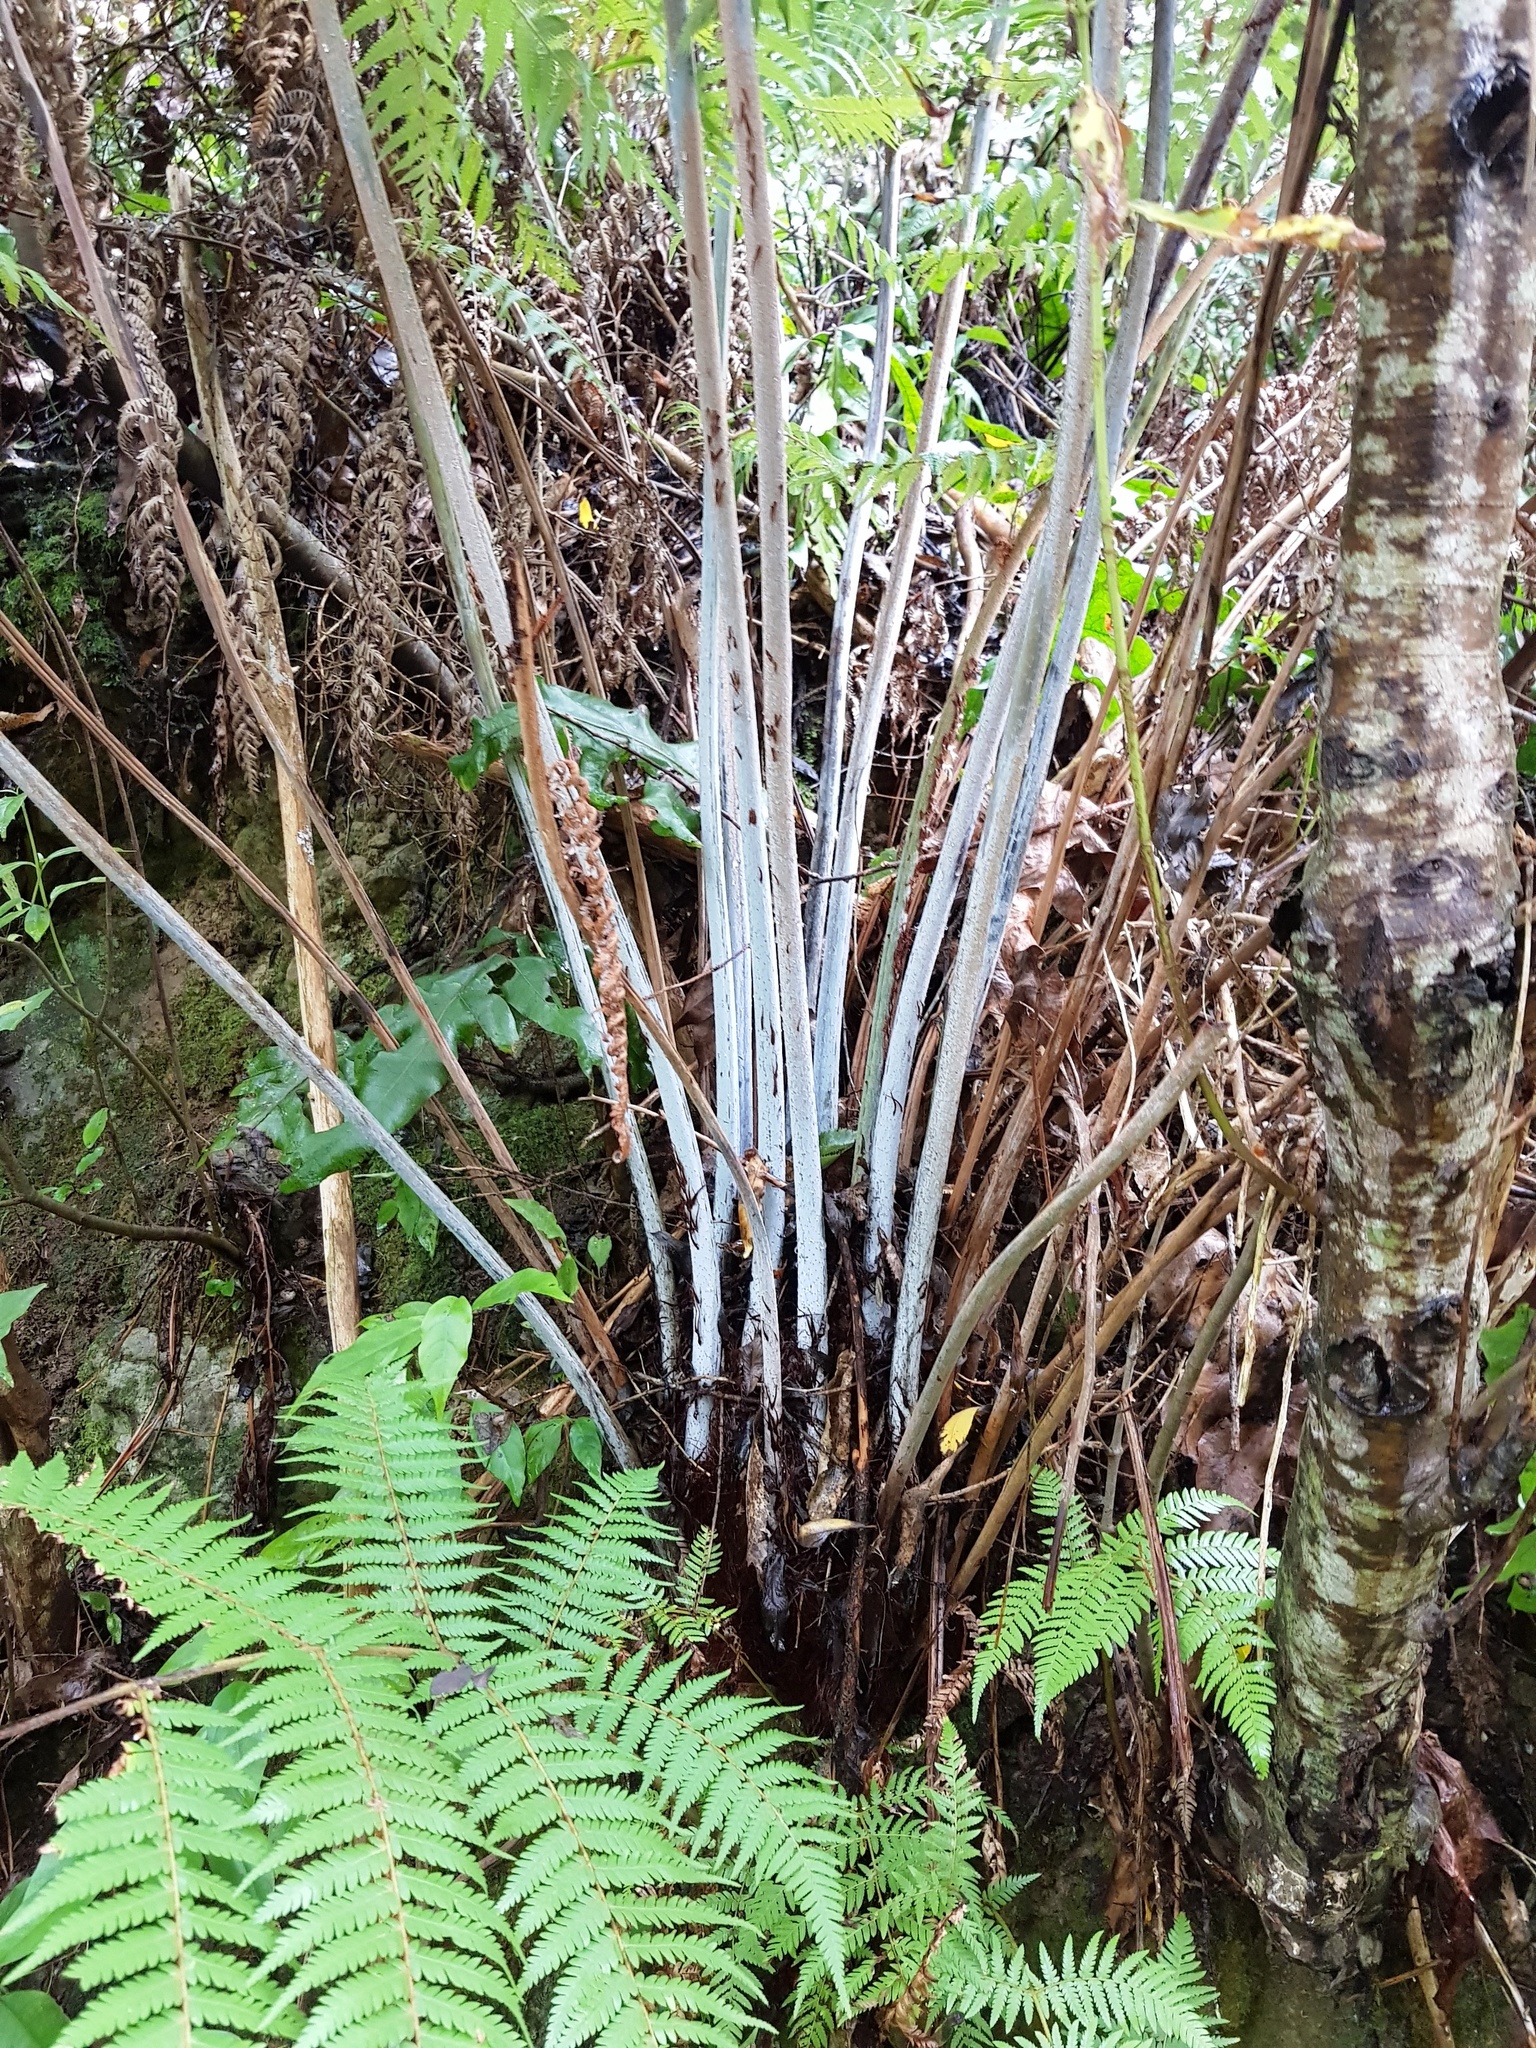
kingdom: Plantae
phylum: Tracheophyta
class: Polypodiopsida
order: Cyatheales
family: Cyatheaceae
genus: Alsophila
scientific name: Alsophila dealbata
